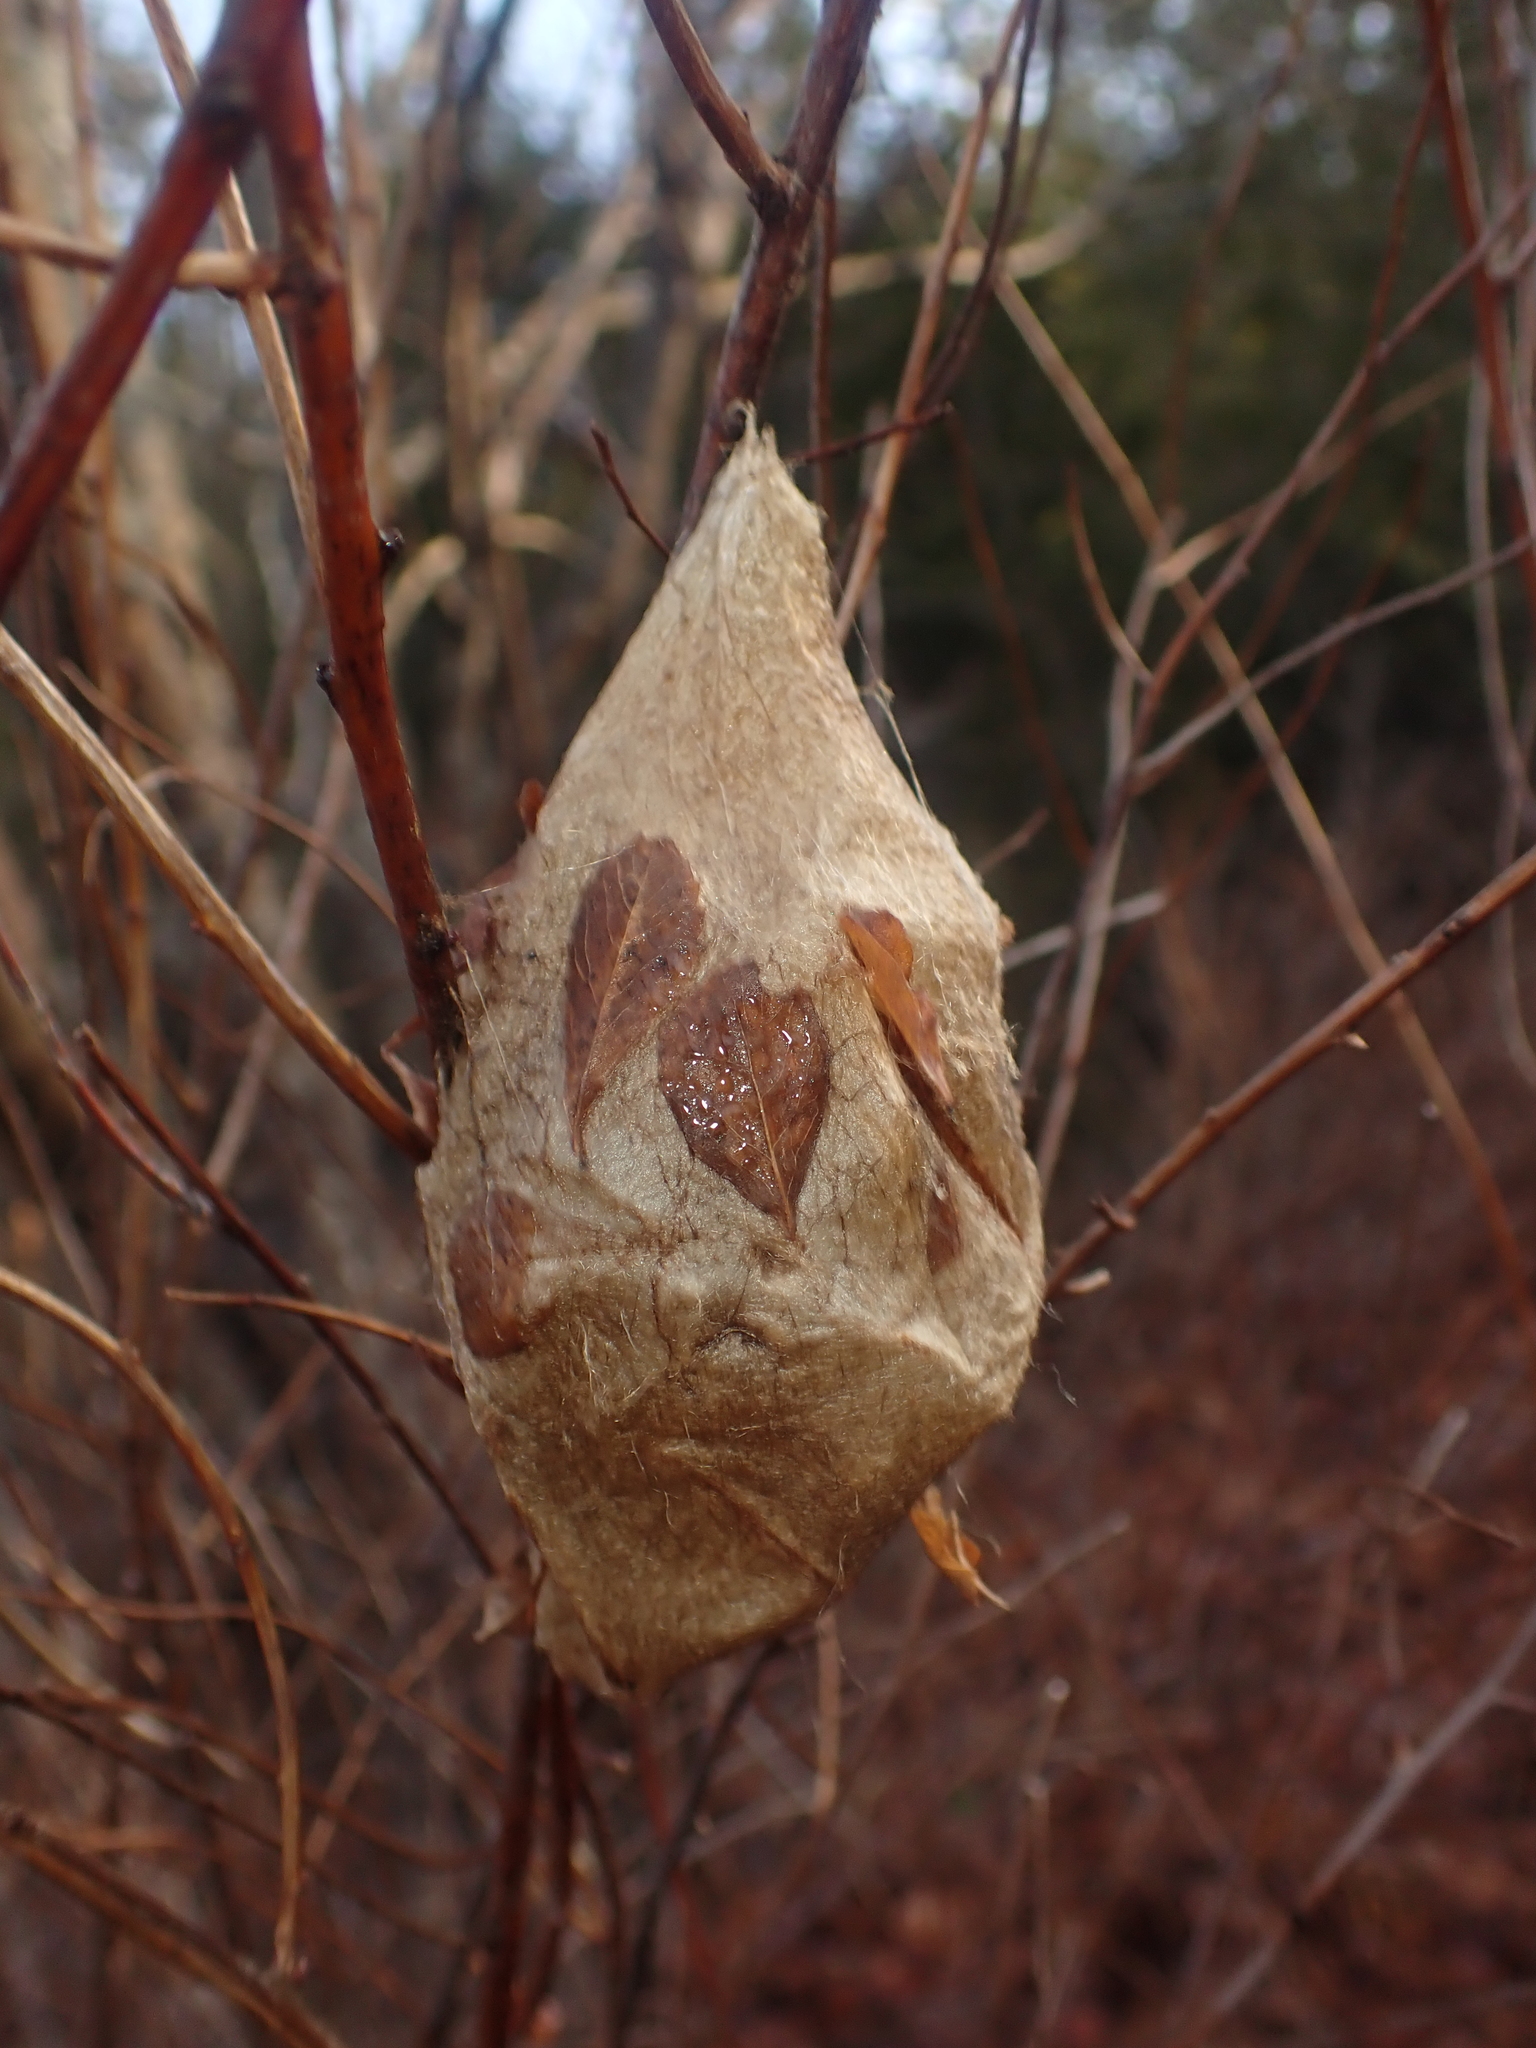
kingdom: Animalia
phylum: Arthropoda
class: Insecta
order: Lepidoptera
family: Saturniidae
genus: Hyalophora
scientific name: Hyalophora cecropia
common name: Cecropia silkmoth
